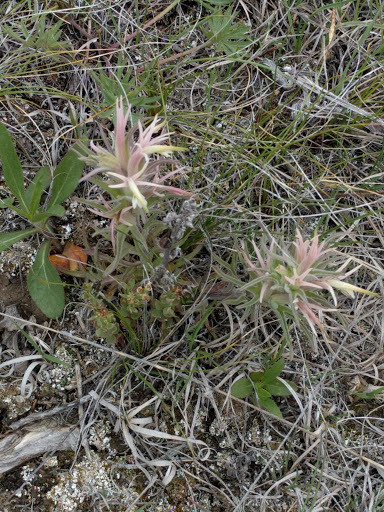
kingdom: Plantae
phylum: Tracheophyta
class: Magnoliopsida
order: Lamiales
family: Orobanchaceae
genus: Castilleja
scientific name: Castilleja sessiliflora
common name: Downy paintbrush
